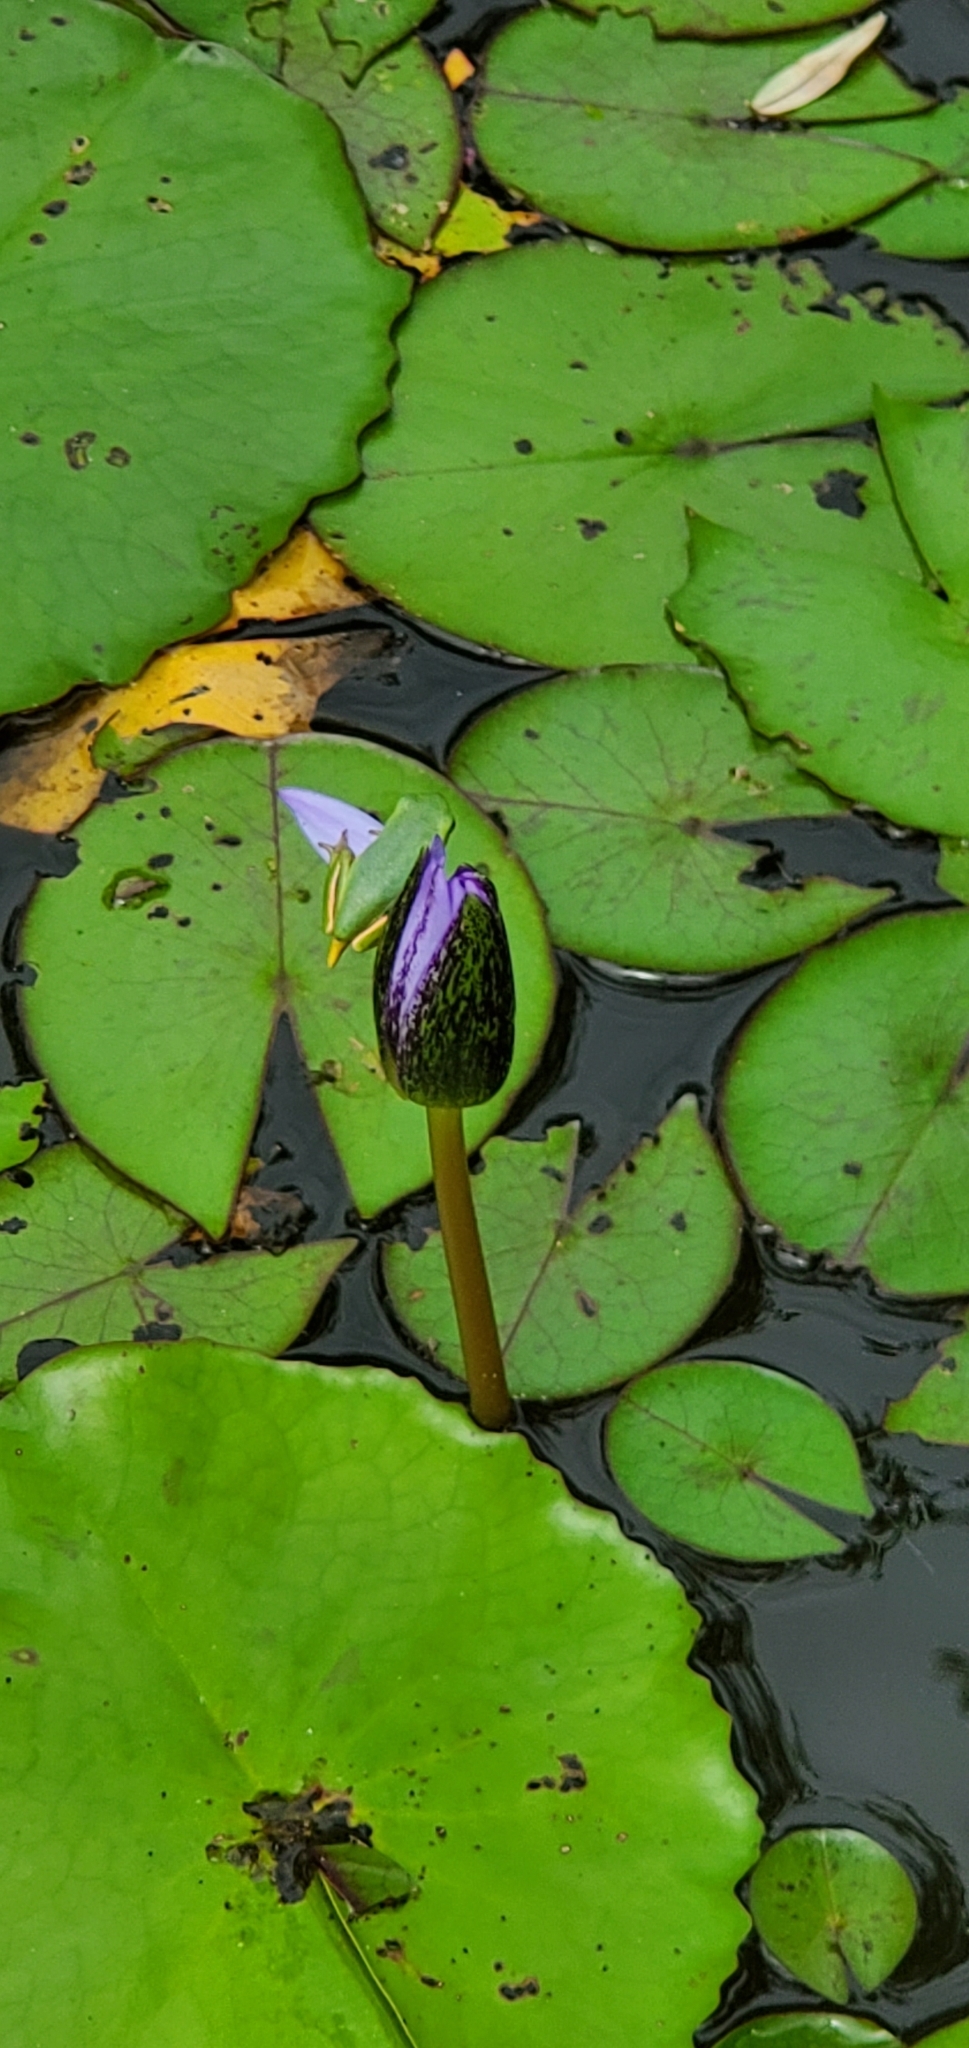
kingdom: Animalia
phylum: Chordata
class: Amphibia
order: Anura
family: Hylidae
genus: Dryophytes
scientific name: Dryophytes cinereus
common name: Green treefrog
